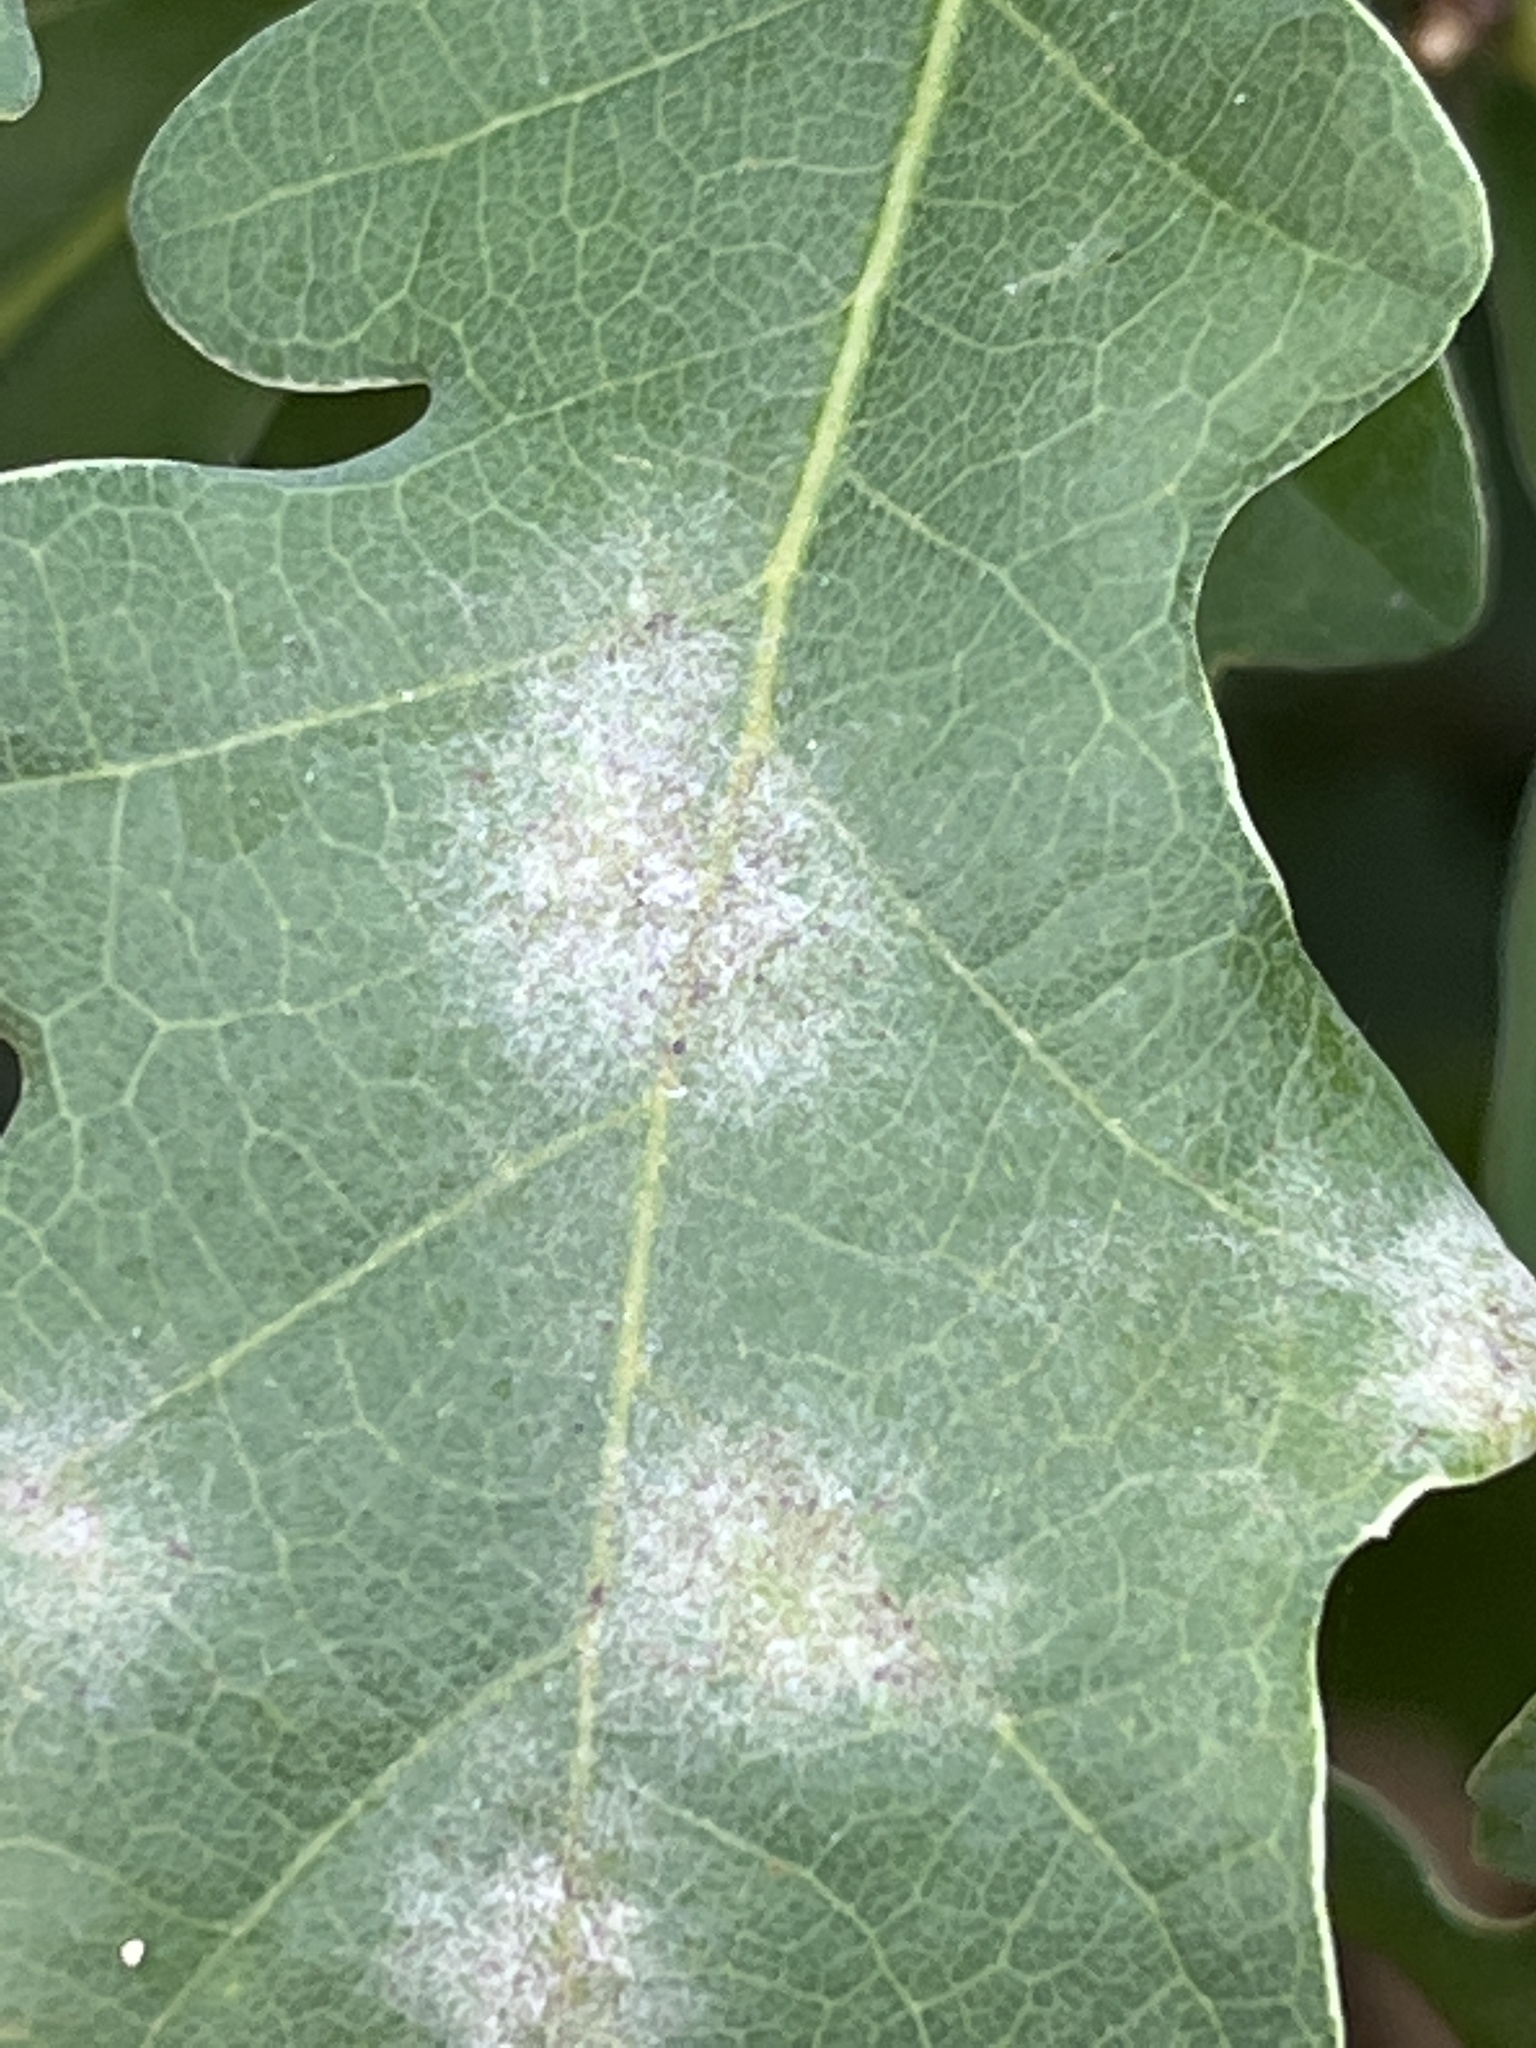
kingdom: Fungi
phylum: Ascomycota
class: Leotiomycetes
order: Helotiales
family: Erysiphaceae
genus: Erysiphe
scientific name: Erysiphe
